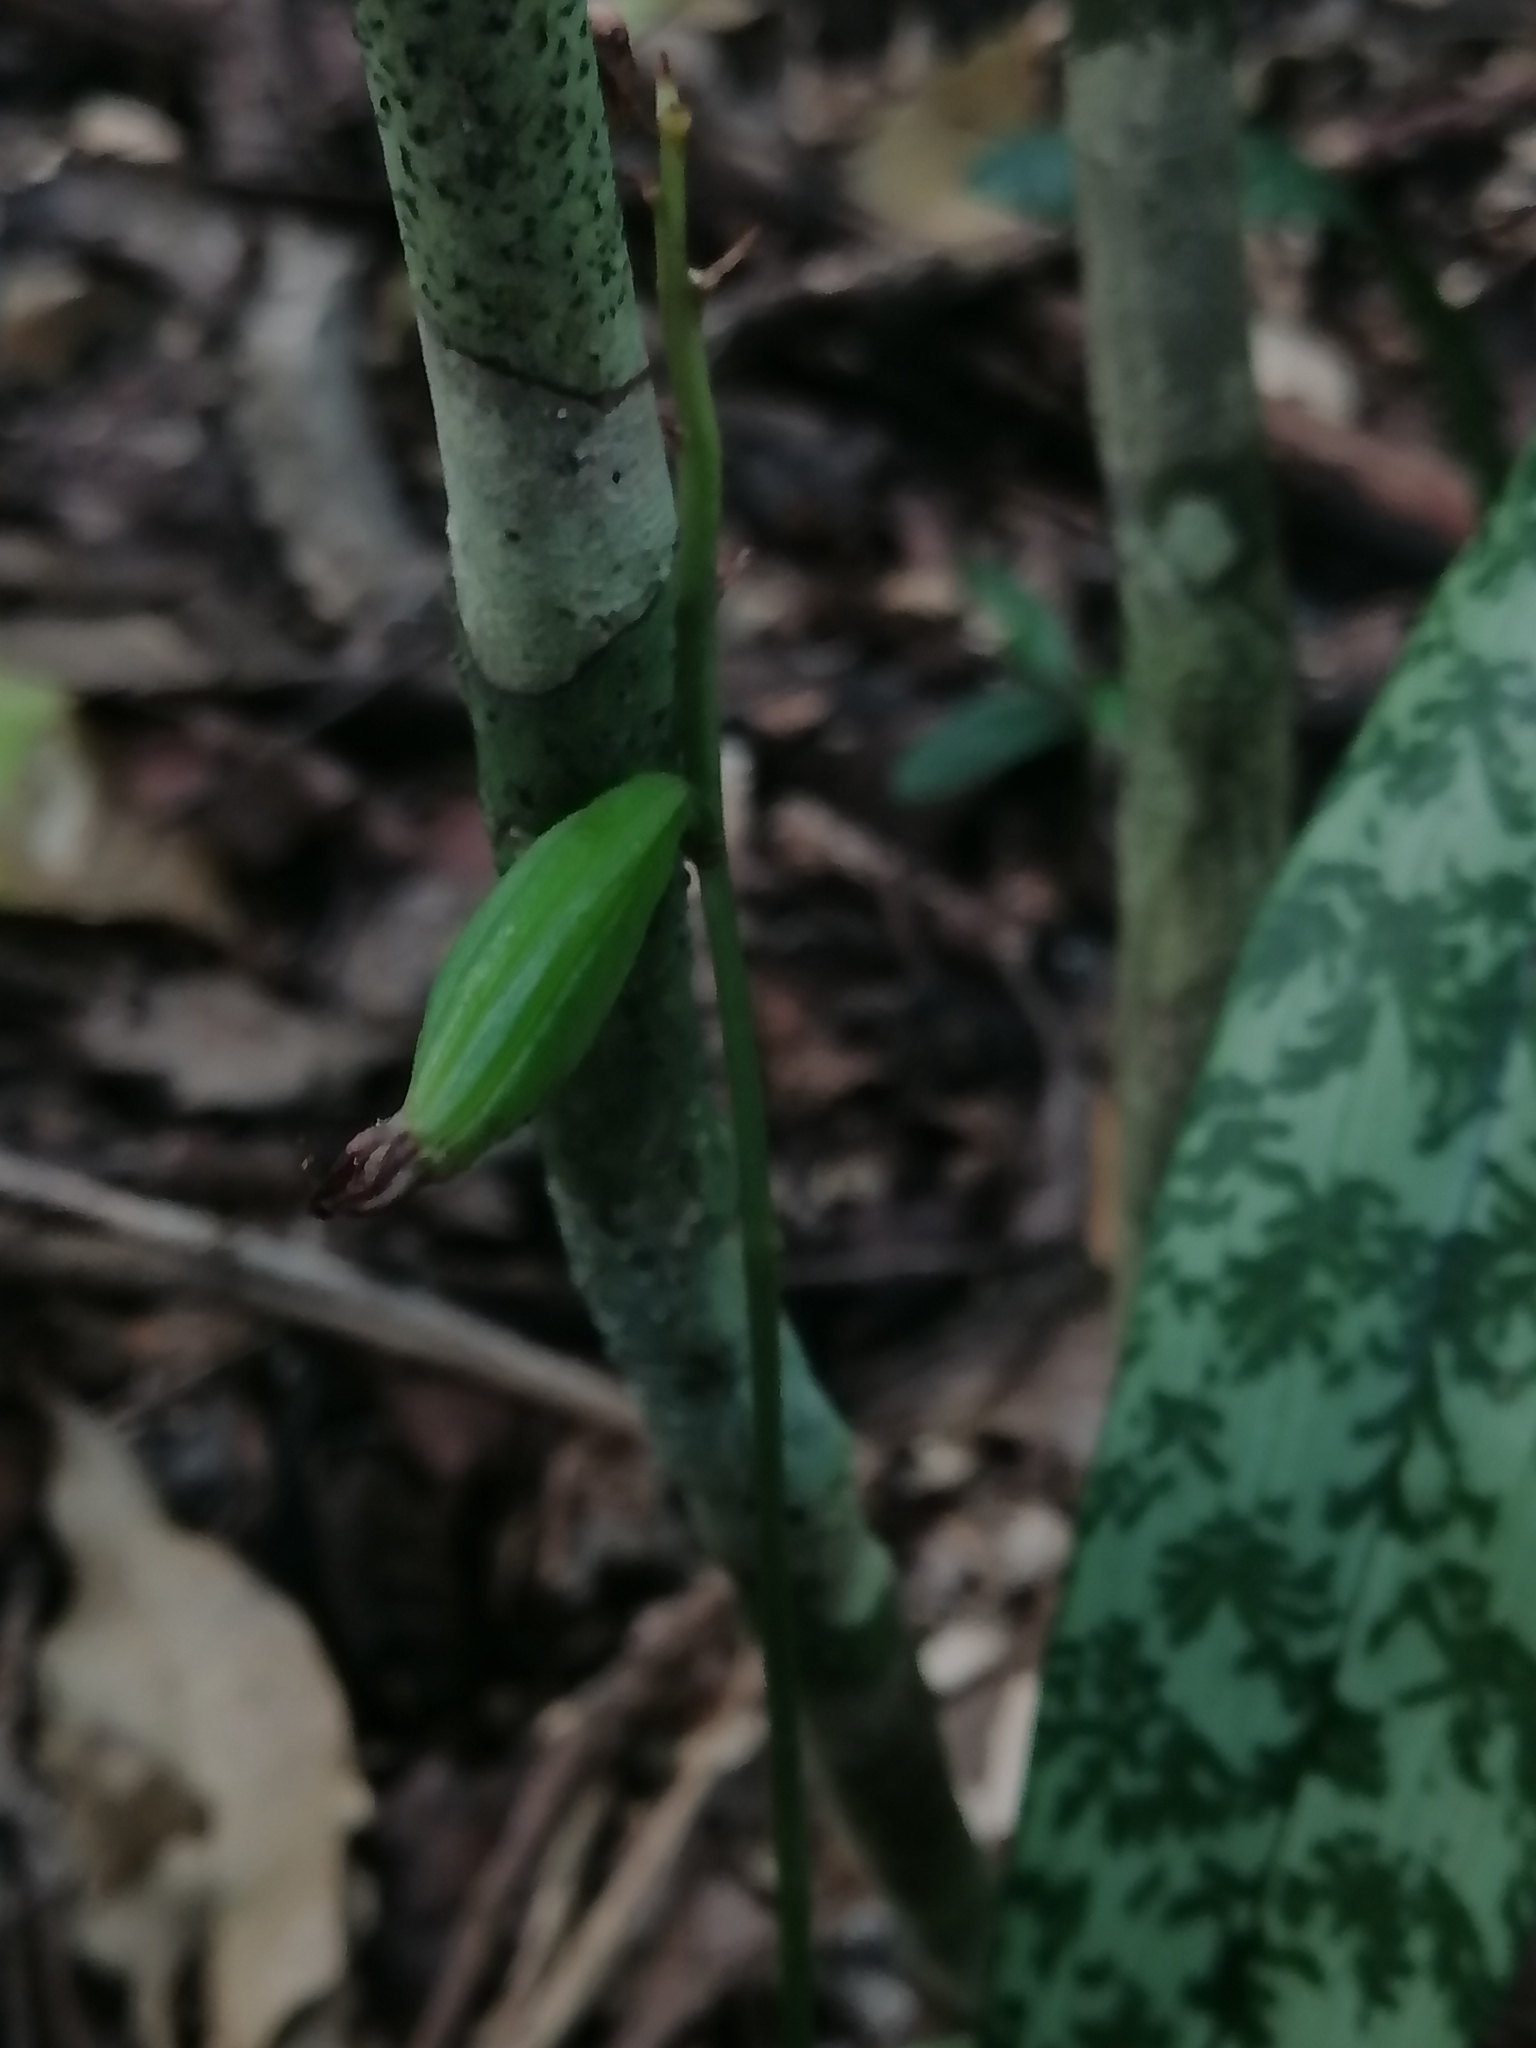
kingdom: Plantae
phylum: Tracheophyta
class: Liliopsida
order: Asparagales
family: Orchidaceae
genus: Eulophia
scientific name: Eulophia maculata
